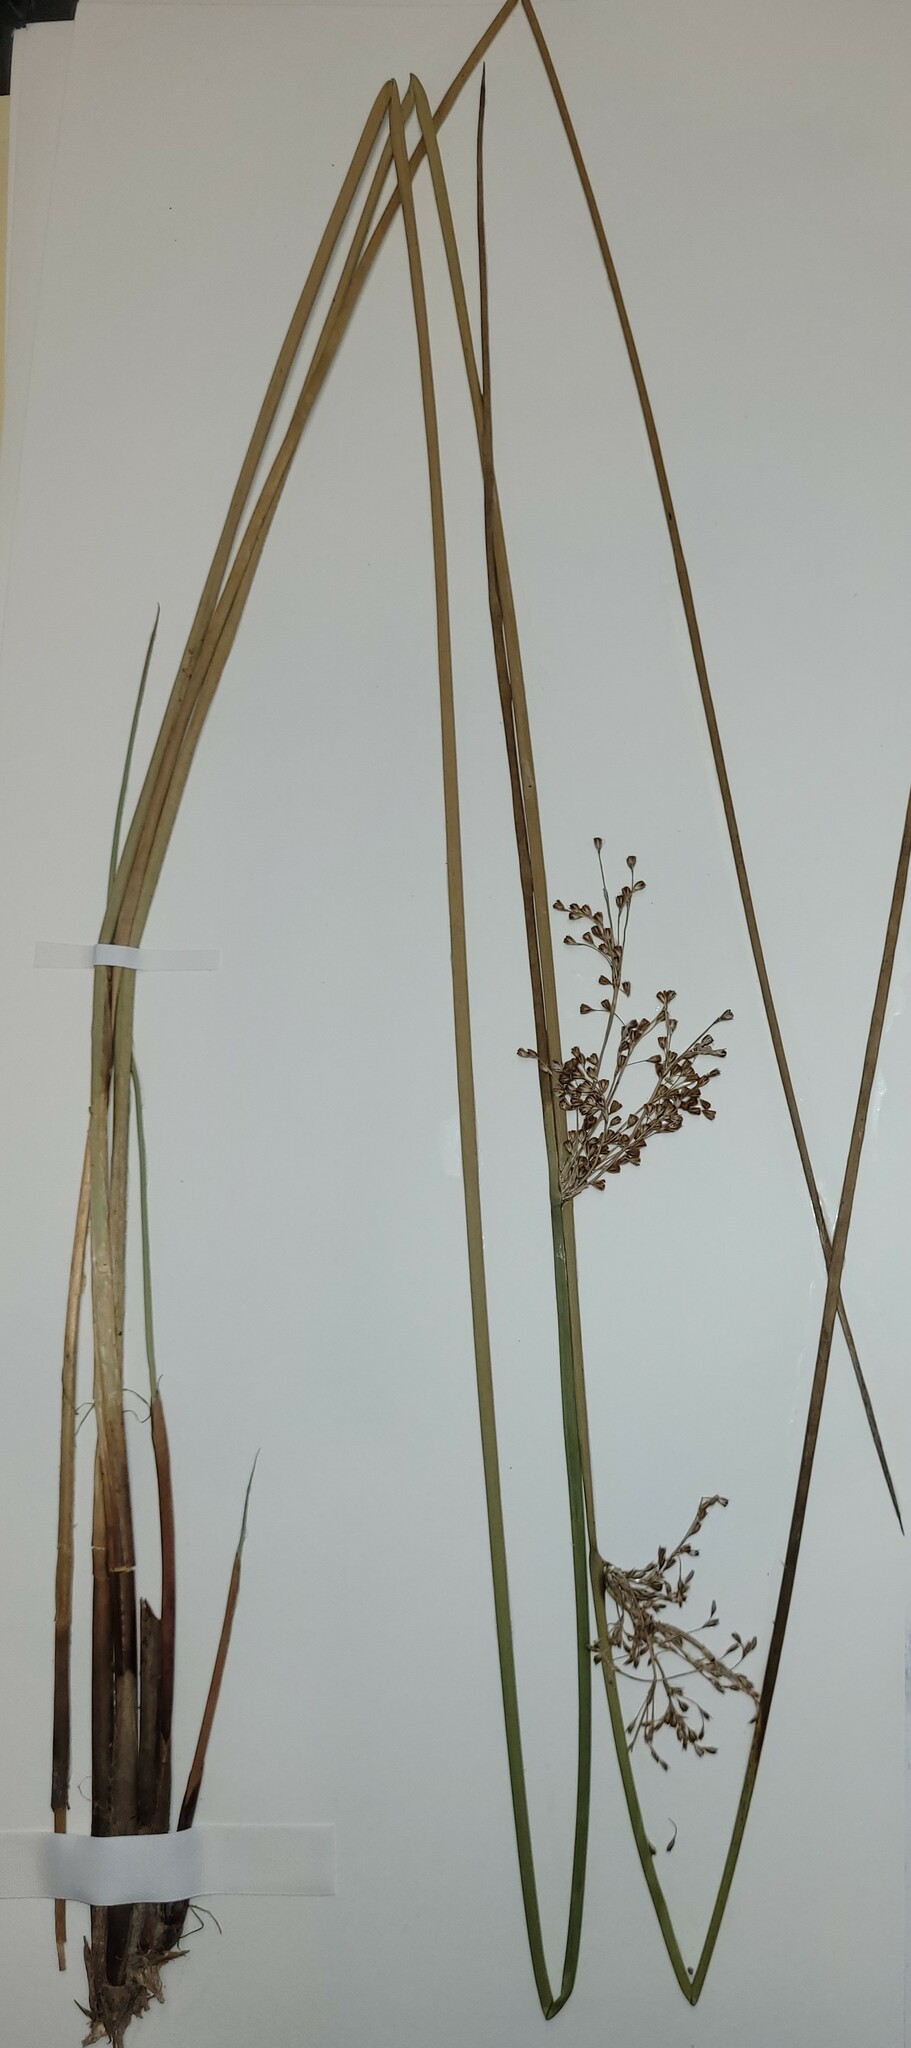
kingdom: Plantae
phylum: Tracheophyta
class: Liliopsida
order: Poales
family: Juncaceae
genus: Juncus
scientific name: Juncus effusus
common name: Soft rush
